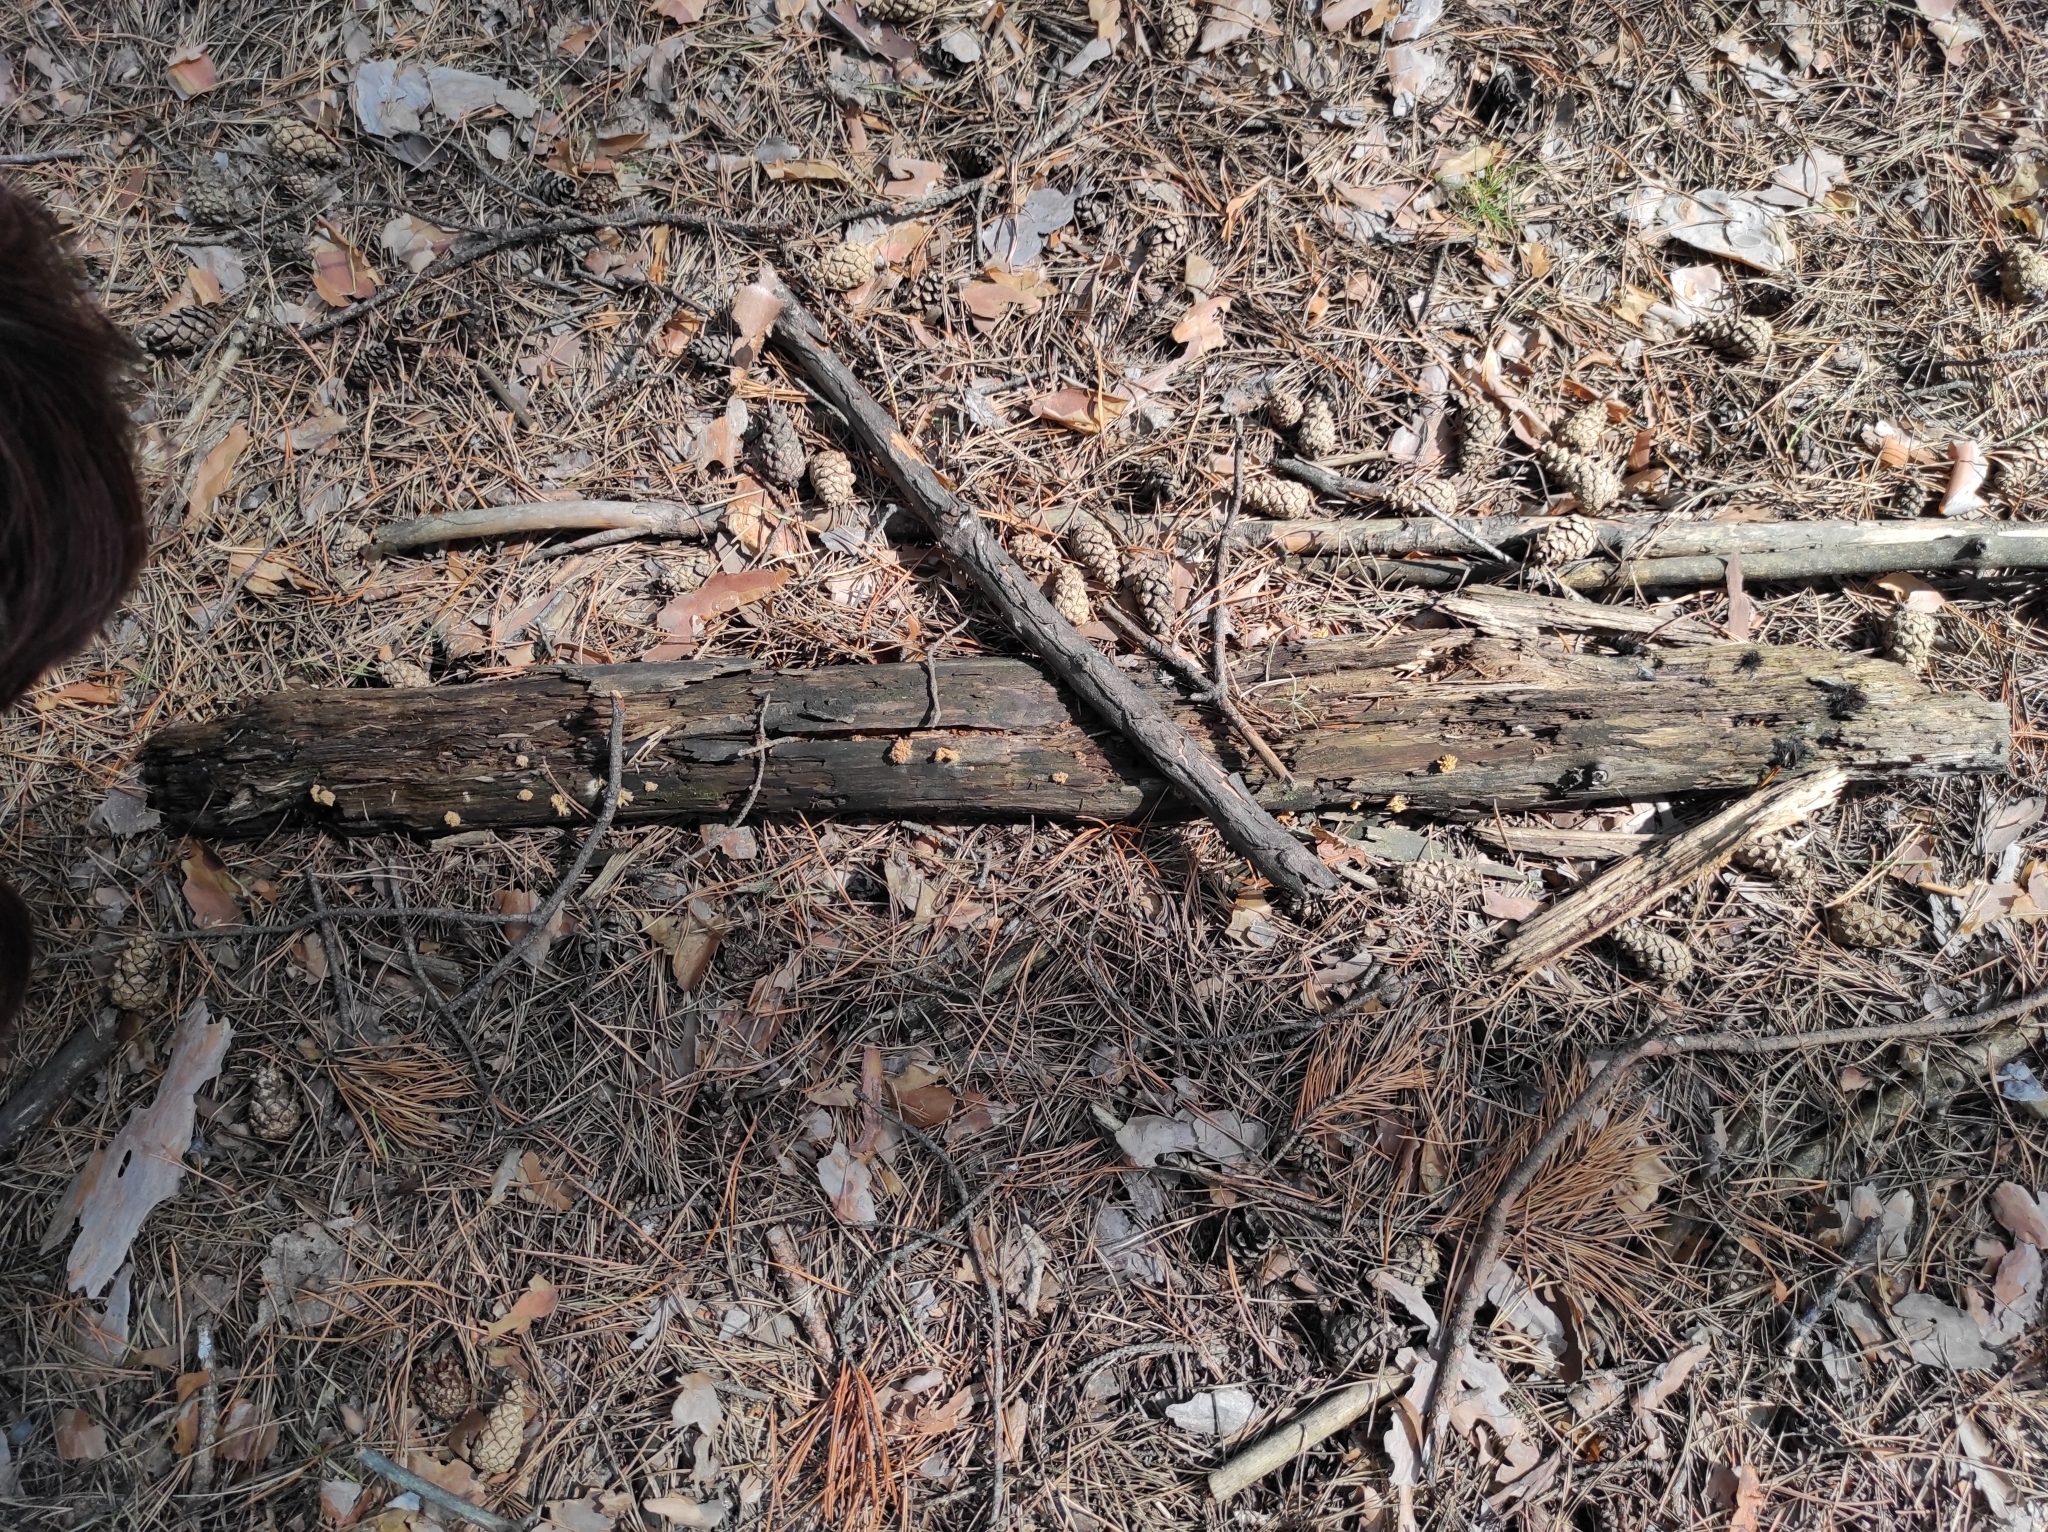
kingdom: Protozoa
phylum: Mycetozoa
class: Myxomycetes
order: Trichiales
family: Arcyriaceae
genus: Arcyria
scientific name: Arcyria obvelata
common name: Yellow carnival candy slime
